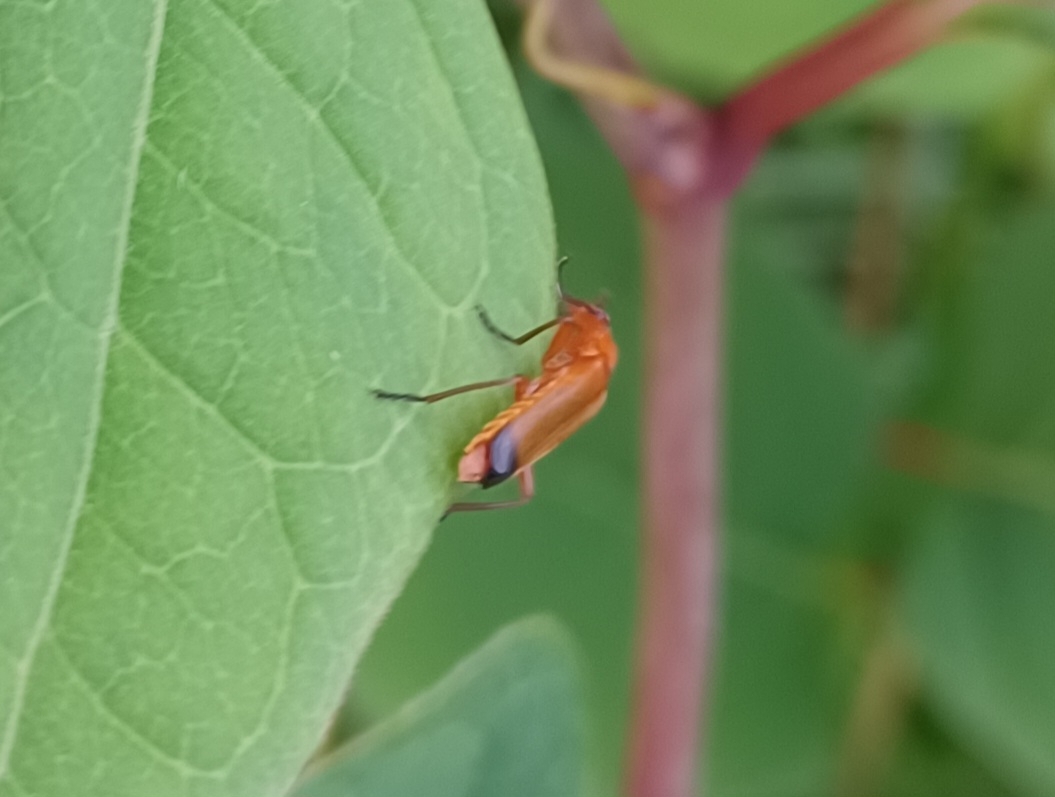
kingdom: Animalia
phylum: Arthropoda
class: Insecta
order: Coleoptera
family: Cantharidae
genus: Rhagonycha
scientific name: Rhagonycha fulva
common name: Common red soldier beetle
